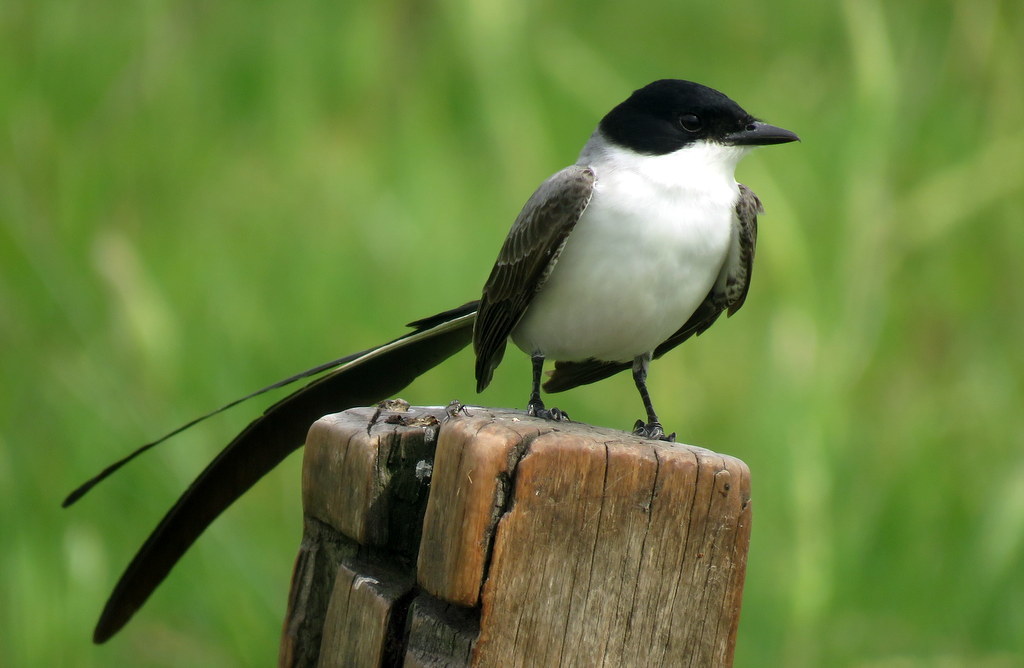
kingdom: Animalia
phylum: Chordata
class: Aves
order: Passeriformes
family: Tyrannidae
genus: Tyrannus
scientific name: Tyrannus savana
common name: Fork-tailed flycatcher
